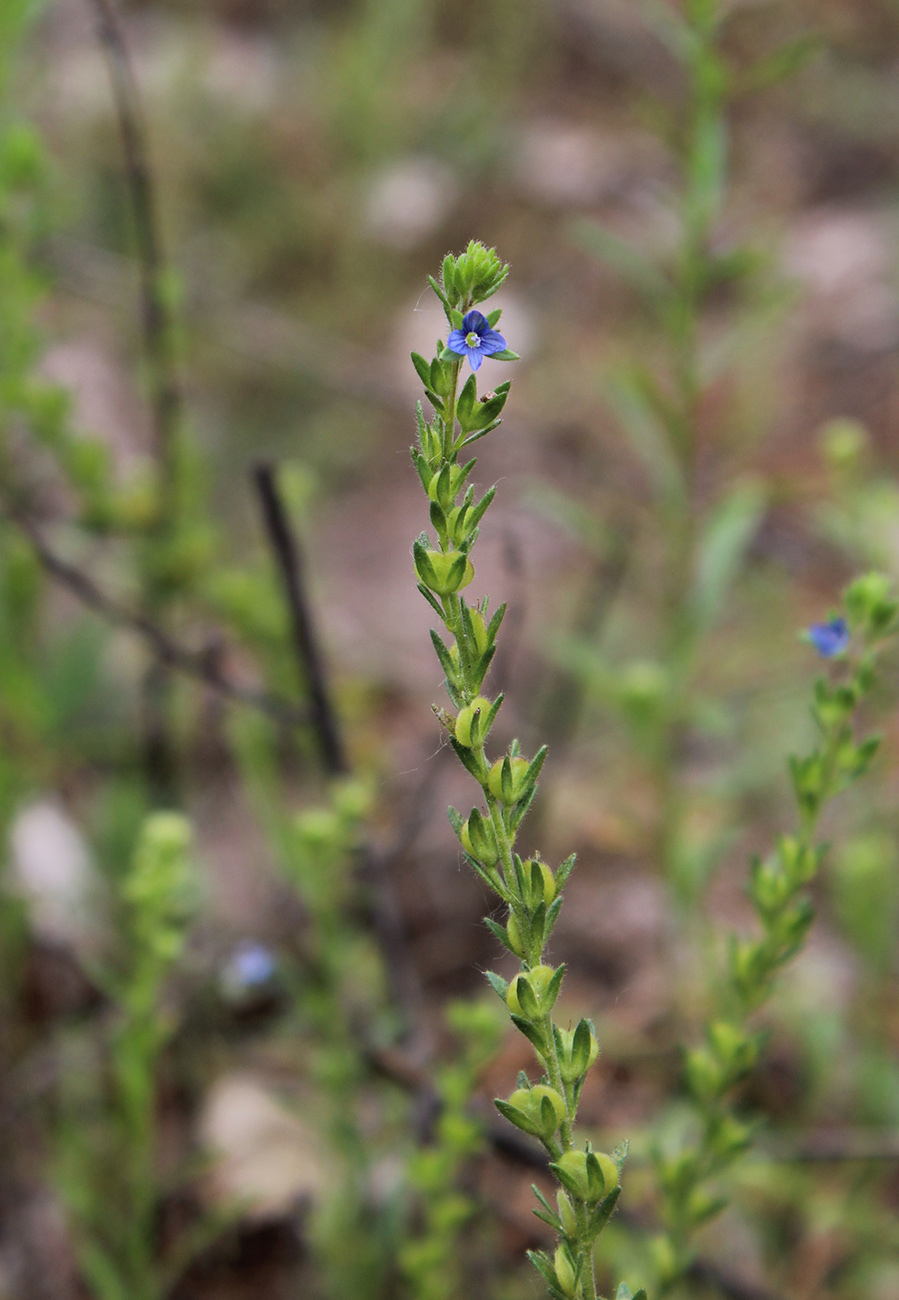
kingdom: Plantae
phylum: Tracheophyta
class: Magnoliopsida
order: Lamiales
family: Plantaginaceae
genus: Veronica
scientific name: Veronica dillenii
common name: Dillenius' speedwell
